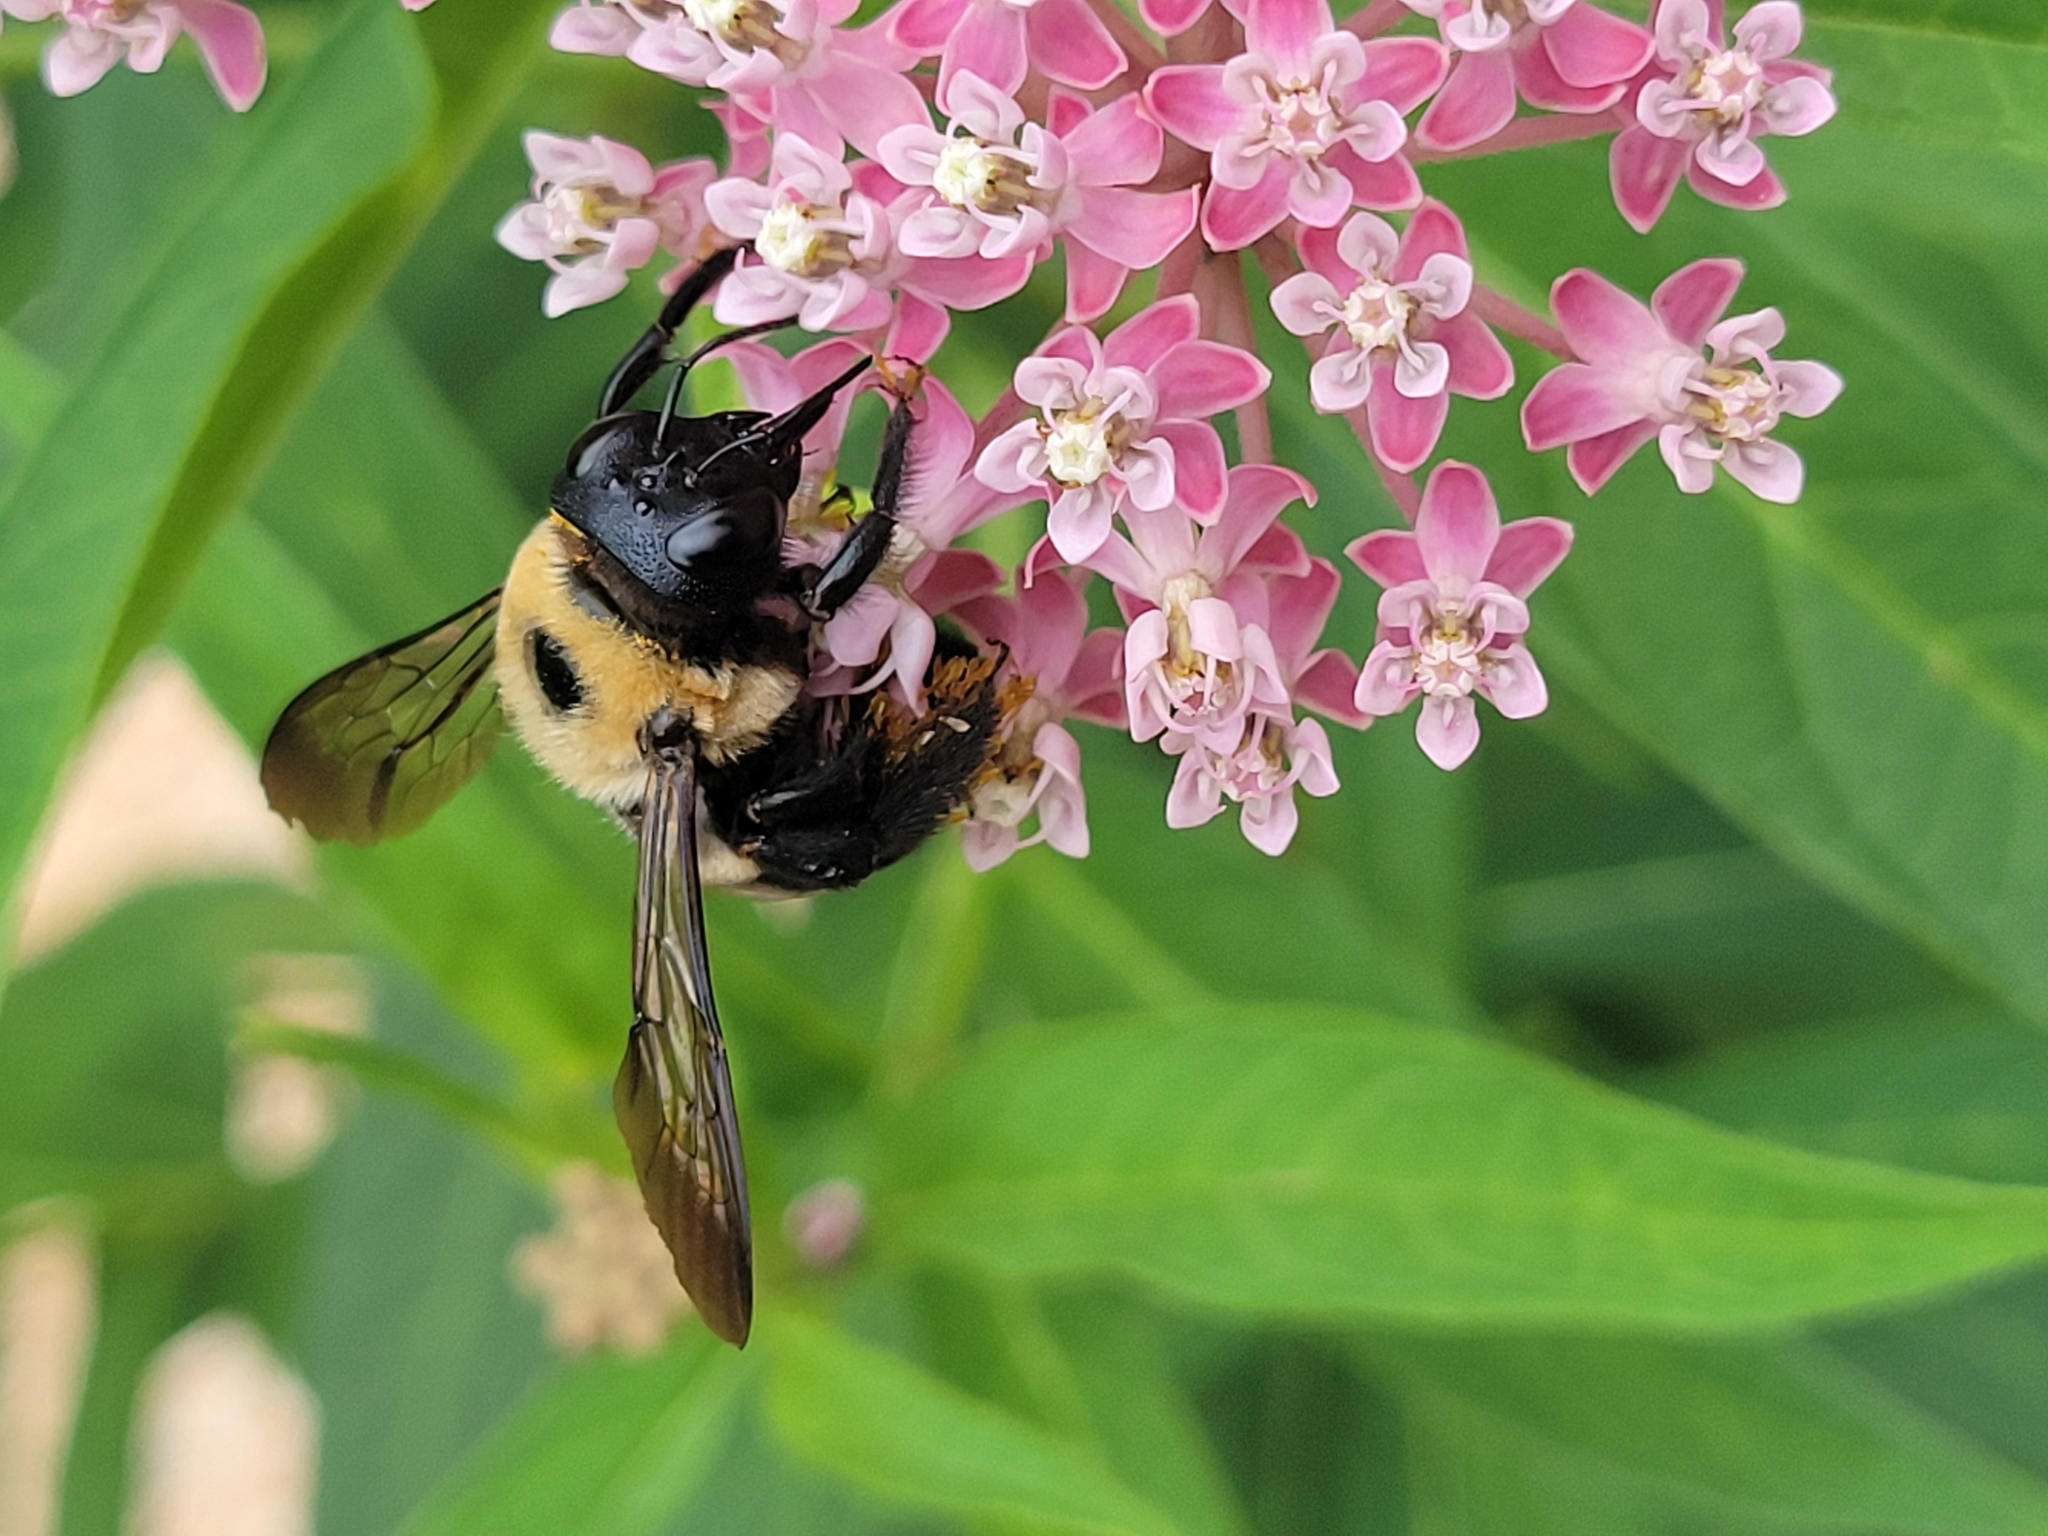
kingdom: Animalia
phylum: Arthropoda
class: Insecta
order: Hymenoptera
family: Apidae
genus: Xylocopa
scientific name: Xylocopa virginica
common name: Carpenter bee
